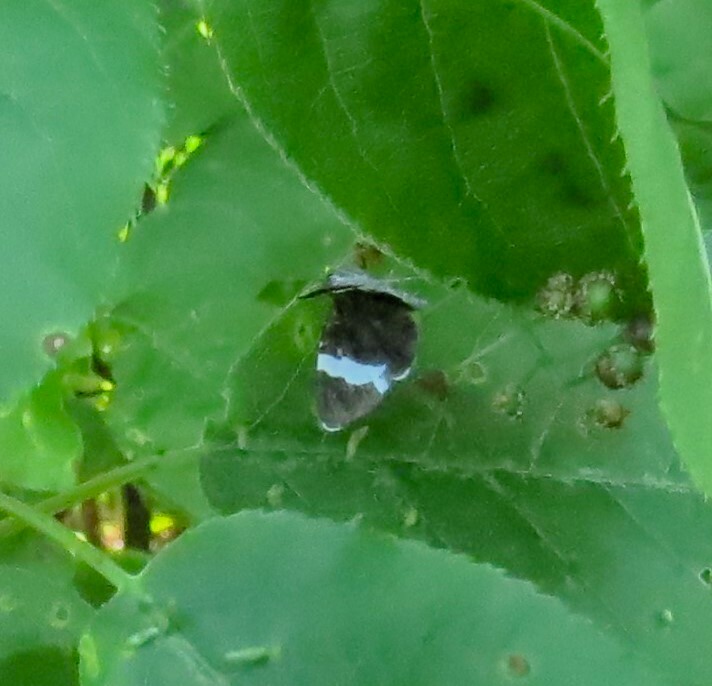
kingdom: Animalia
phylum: Arthropoda
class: Insecta
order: Lepidoptera
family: Geometridae
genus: Trichodezia
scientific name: Trichodezia albovittata
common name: White striped black
